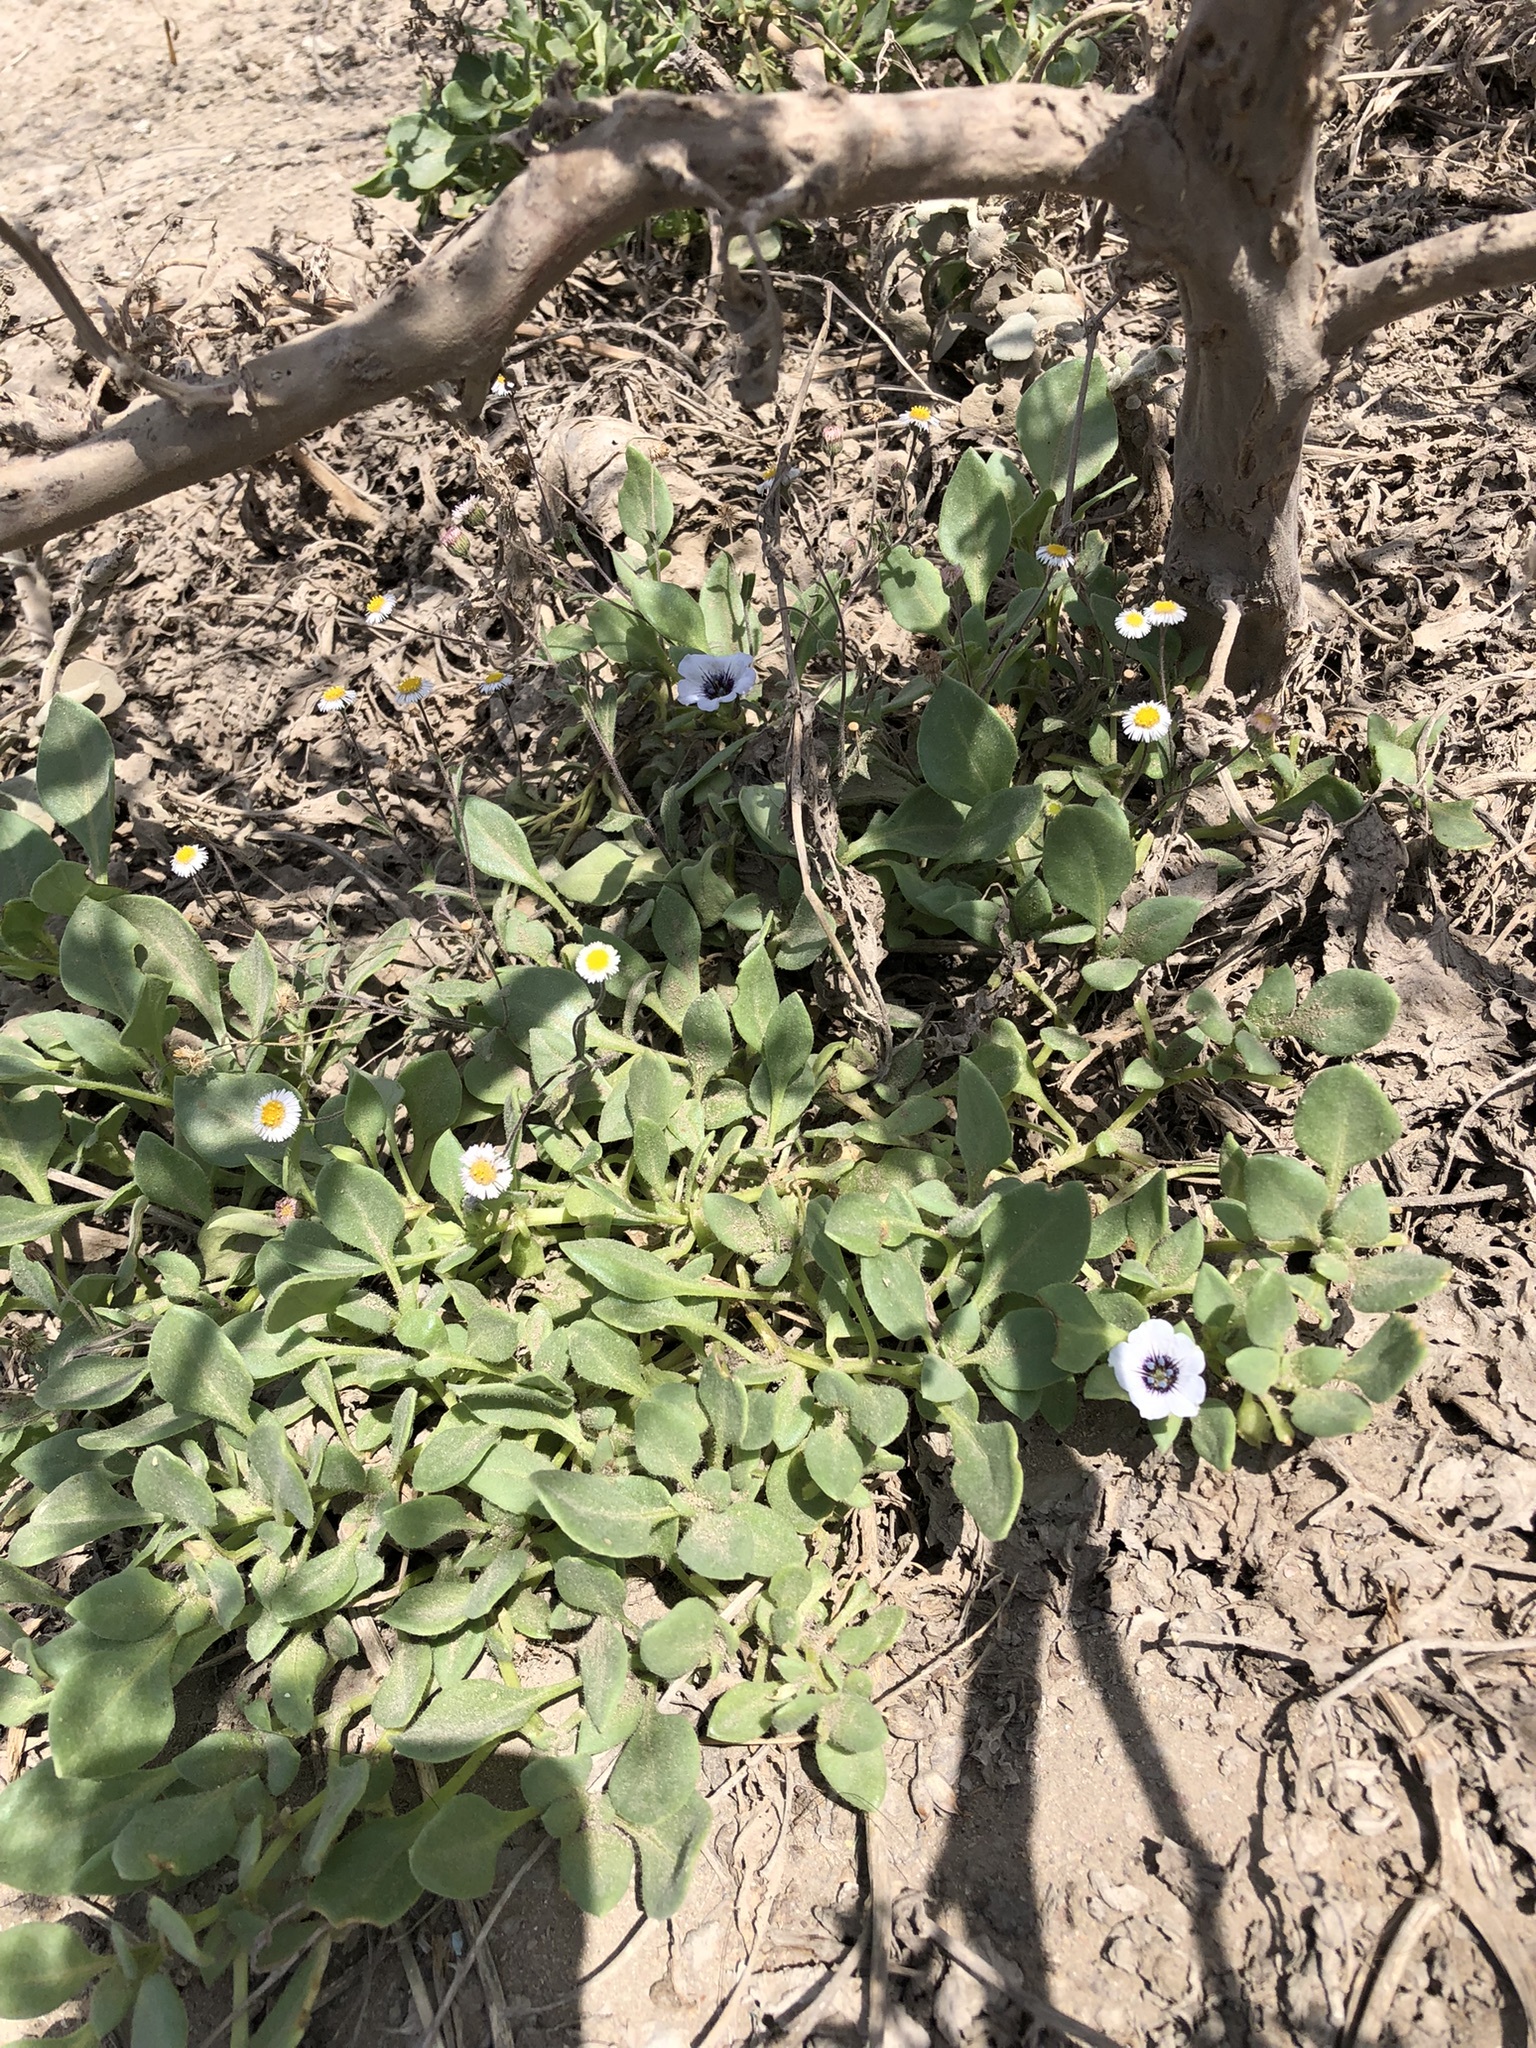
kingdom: Plantae
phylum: Tracheophyta
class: Magnoliopsida
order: Solanales
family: Solanaceae
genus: Nolana
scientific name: Nolana humifusa
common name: Trailing chilean-bellflower
